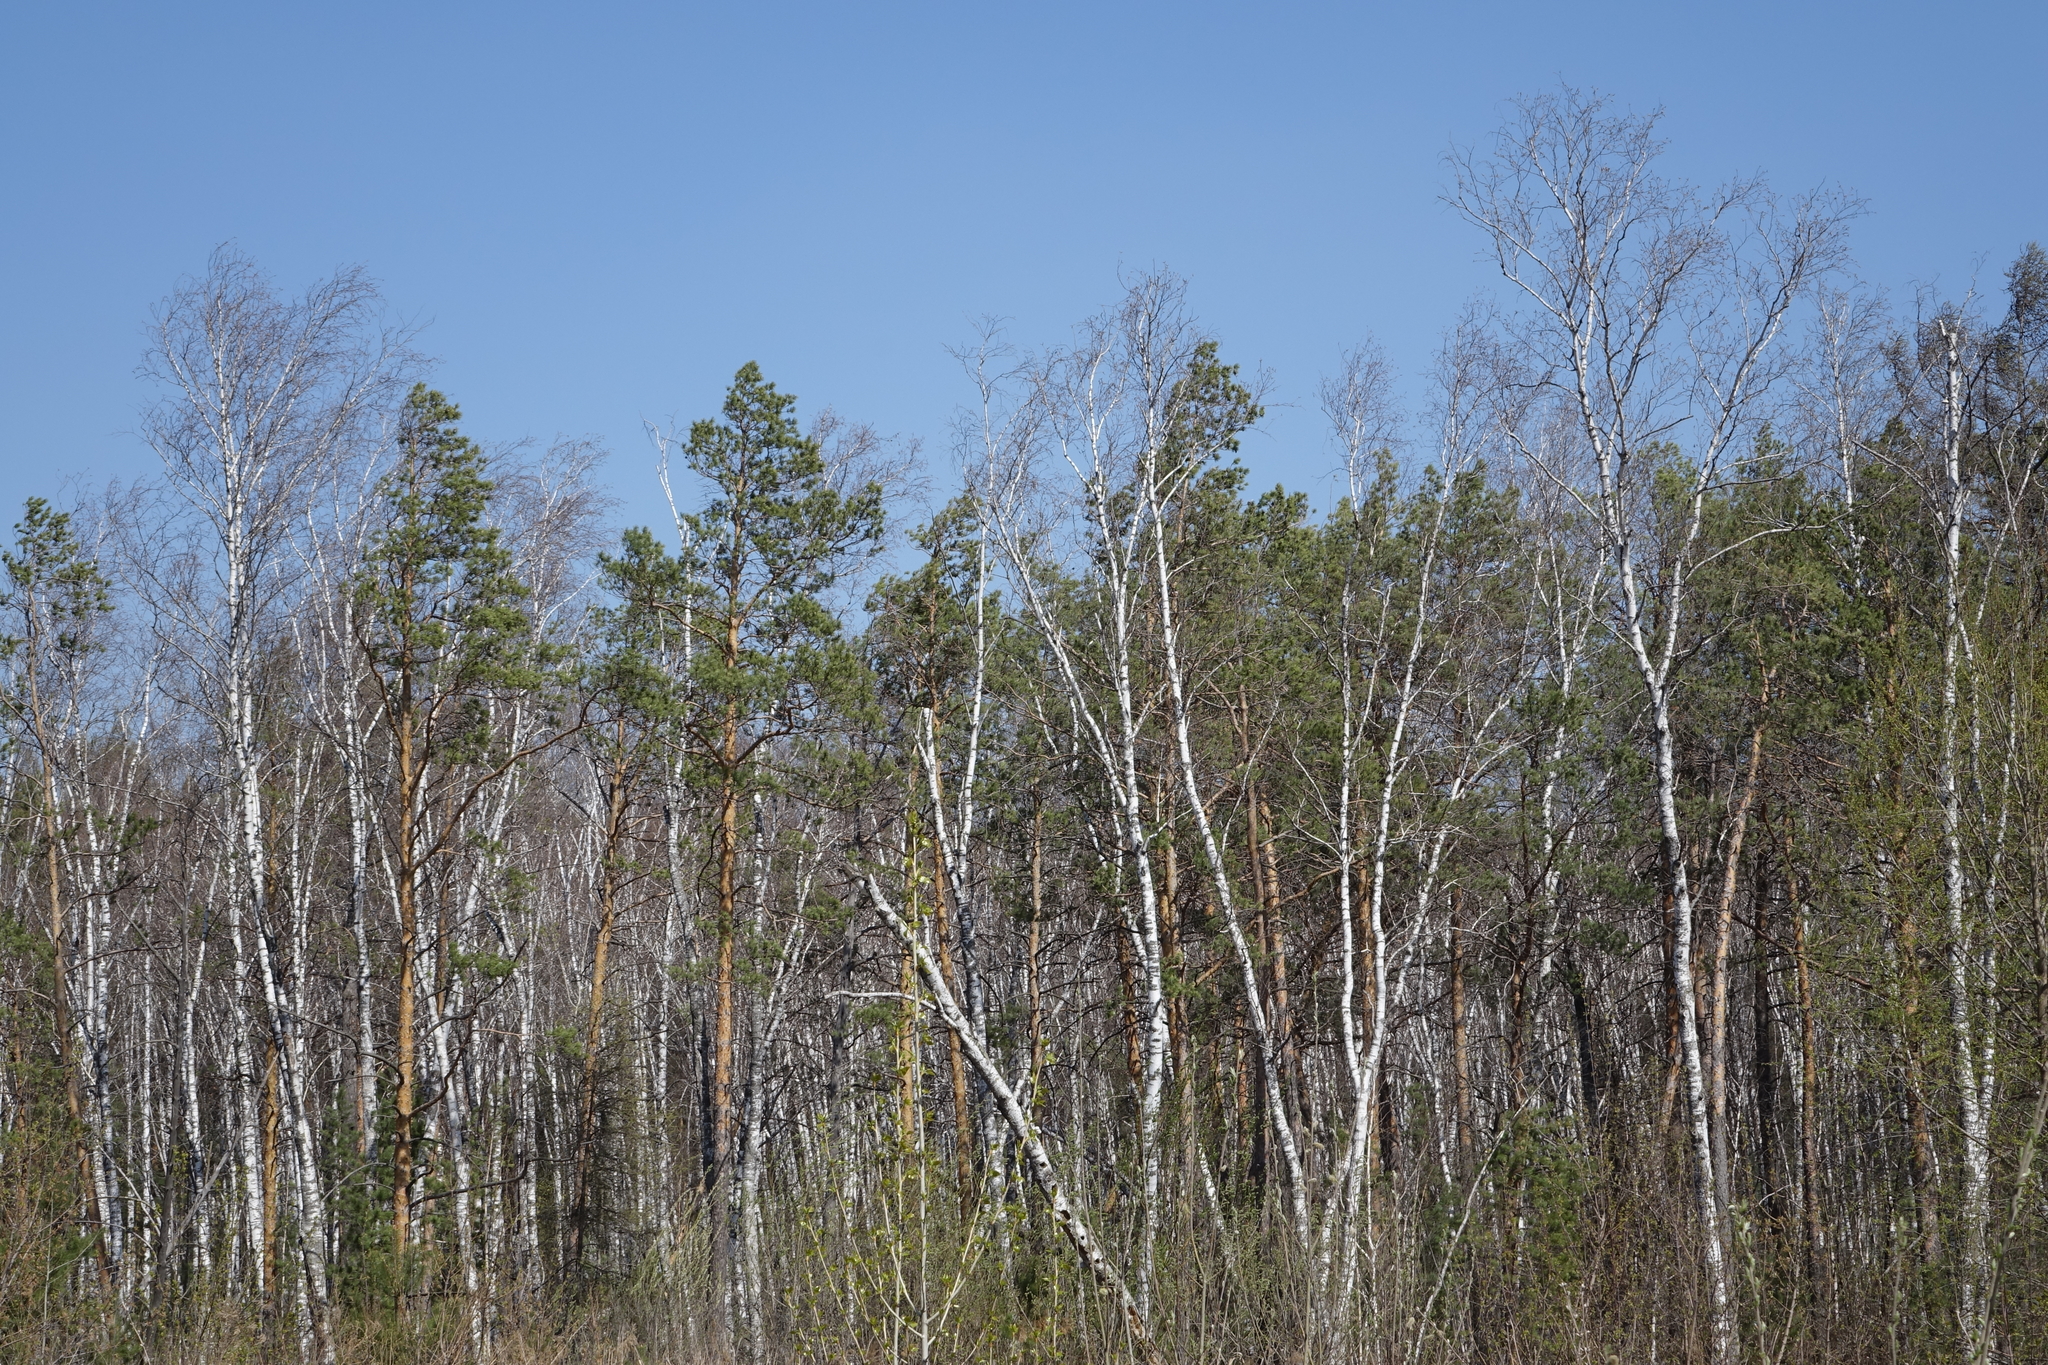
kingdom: Plantae
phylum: Tracheophyta
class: Magnoliopsida
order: Fagales
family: Betulaceae
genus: Betula
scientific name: Betula pubescens
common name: Downy birch
